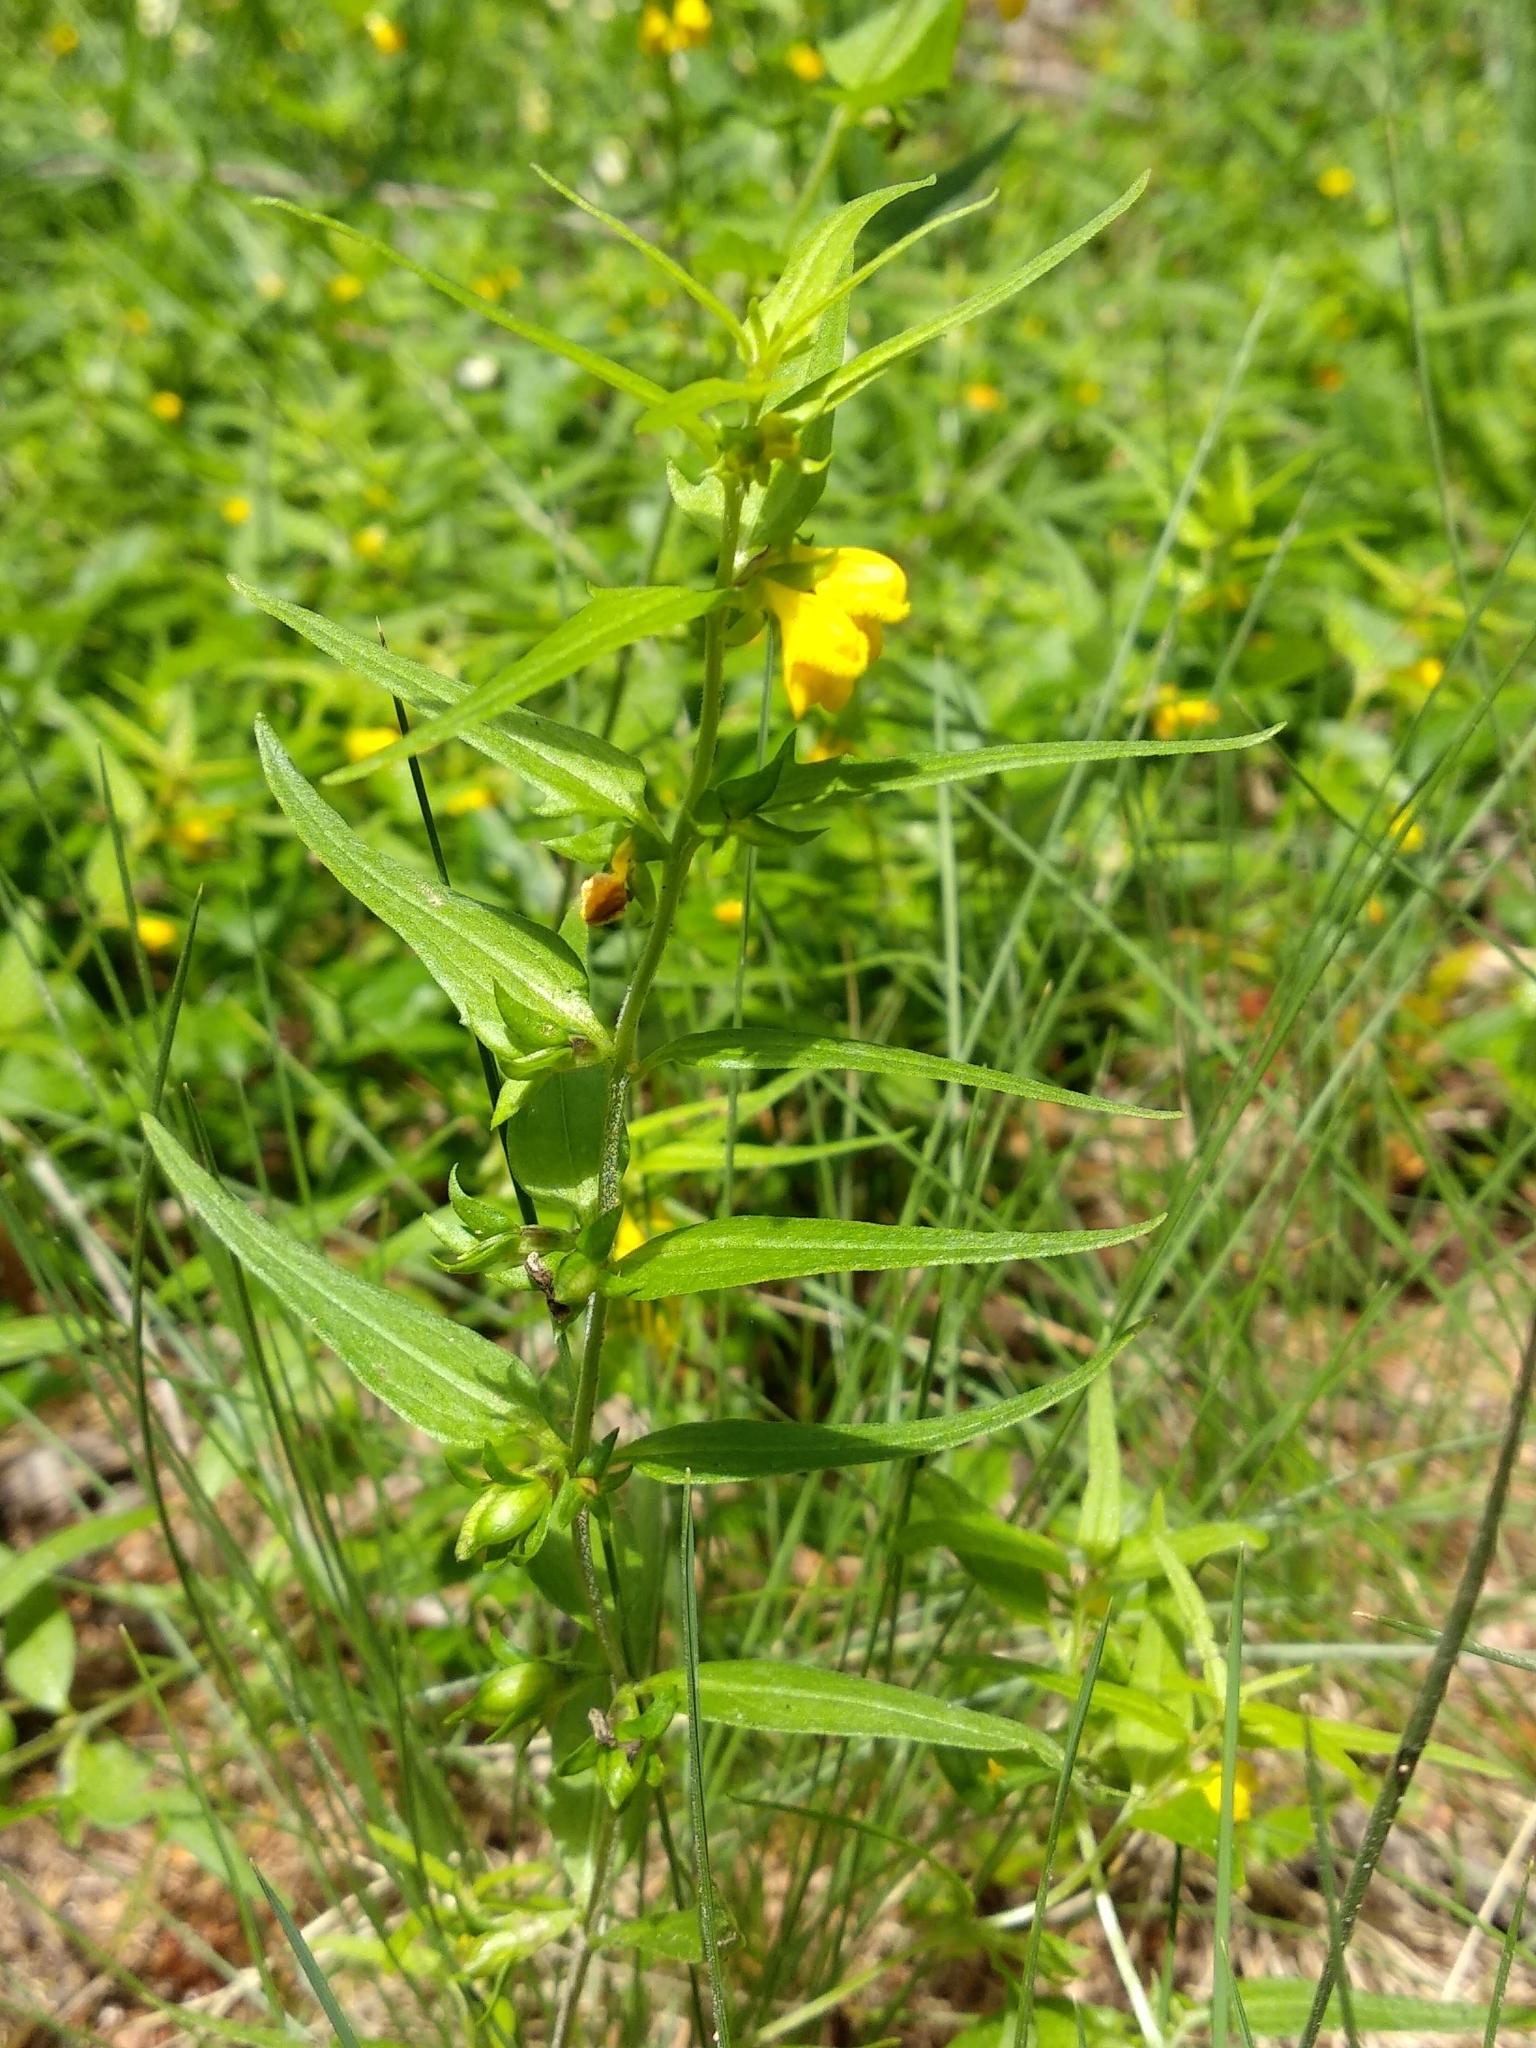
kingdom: Plantae
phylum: Tracheophyta
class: Magnoliopsida
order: Lamiales
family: Orobanchaceae
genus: Melampyrum
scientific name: Melampyrum sylvaticum
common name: Small cow-wheat
